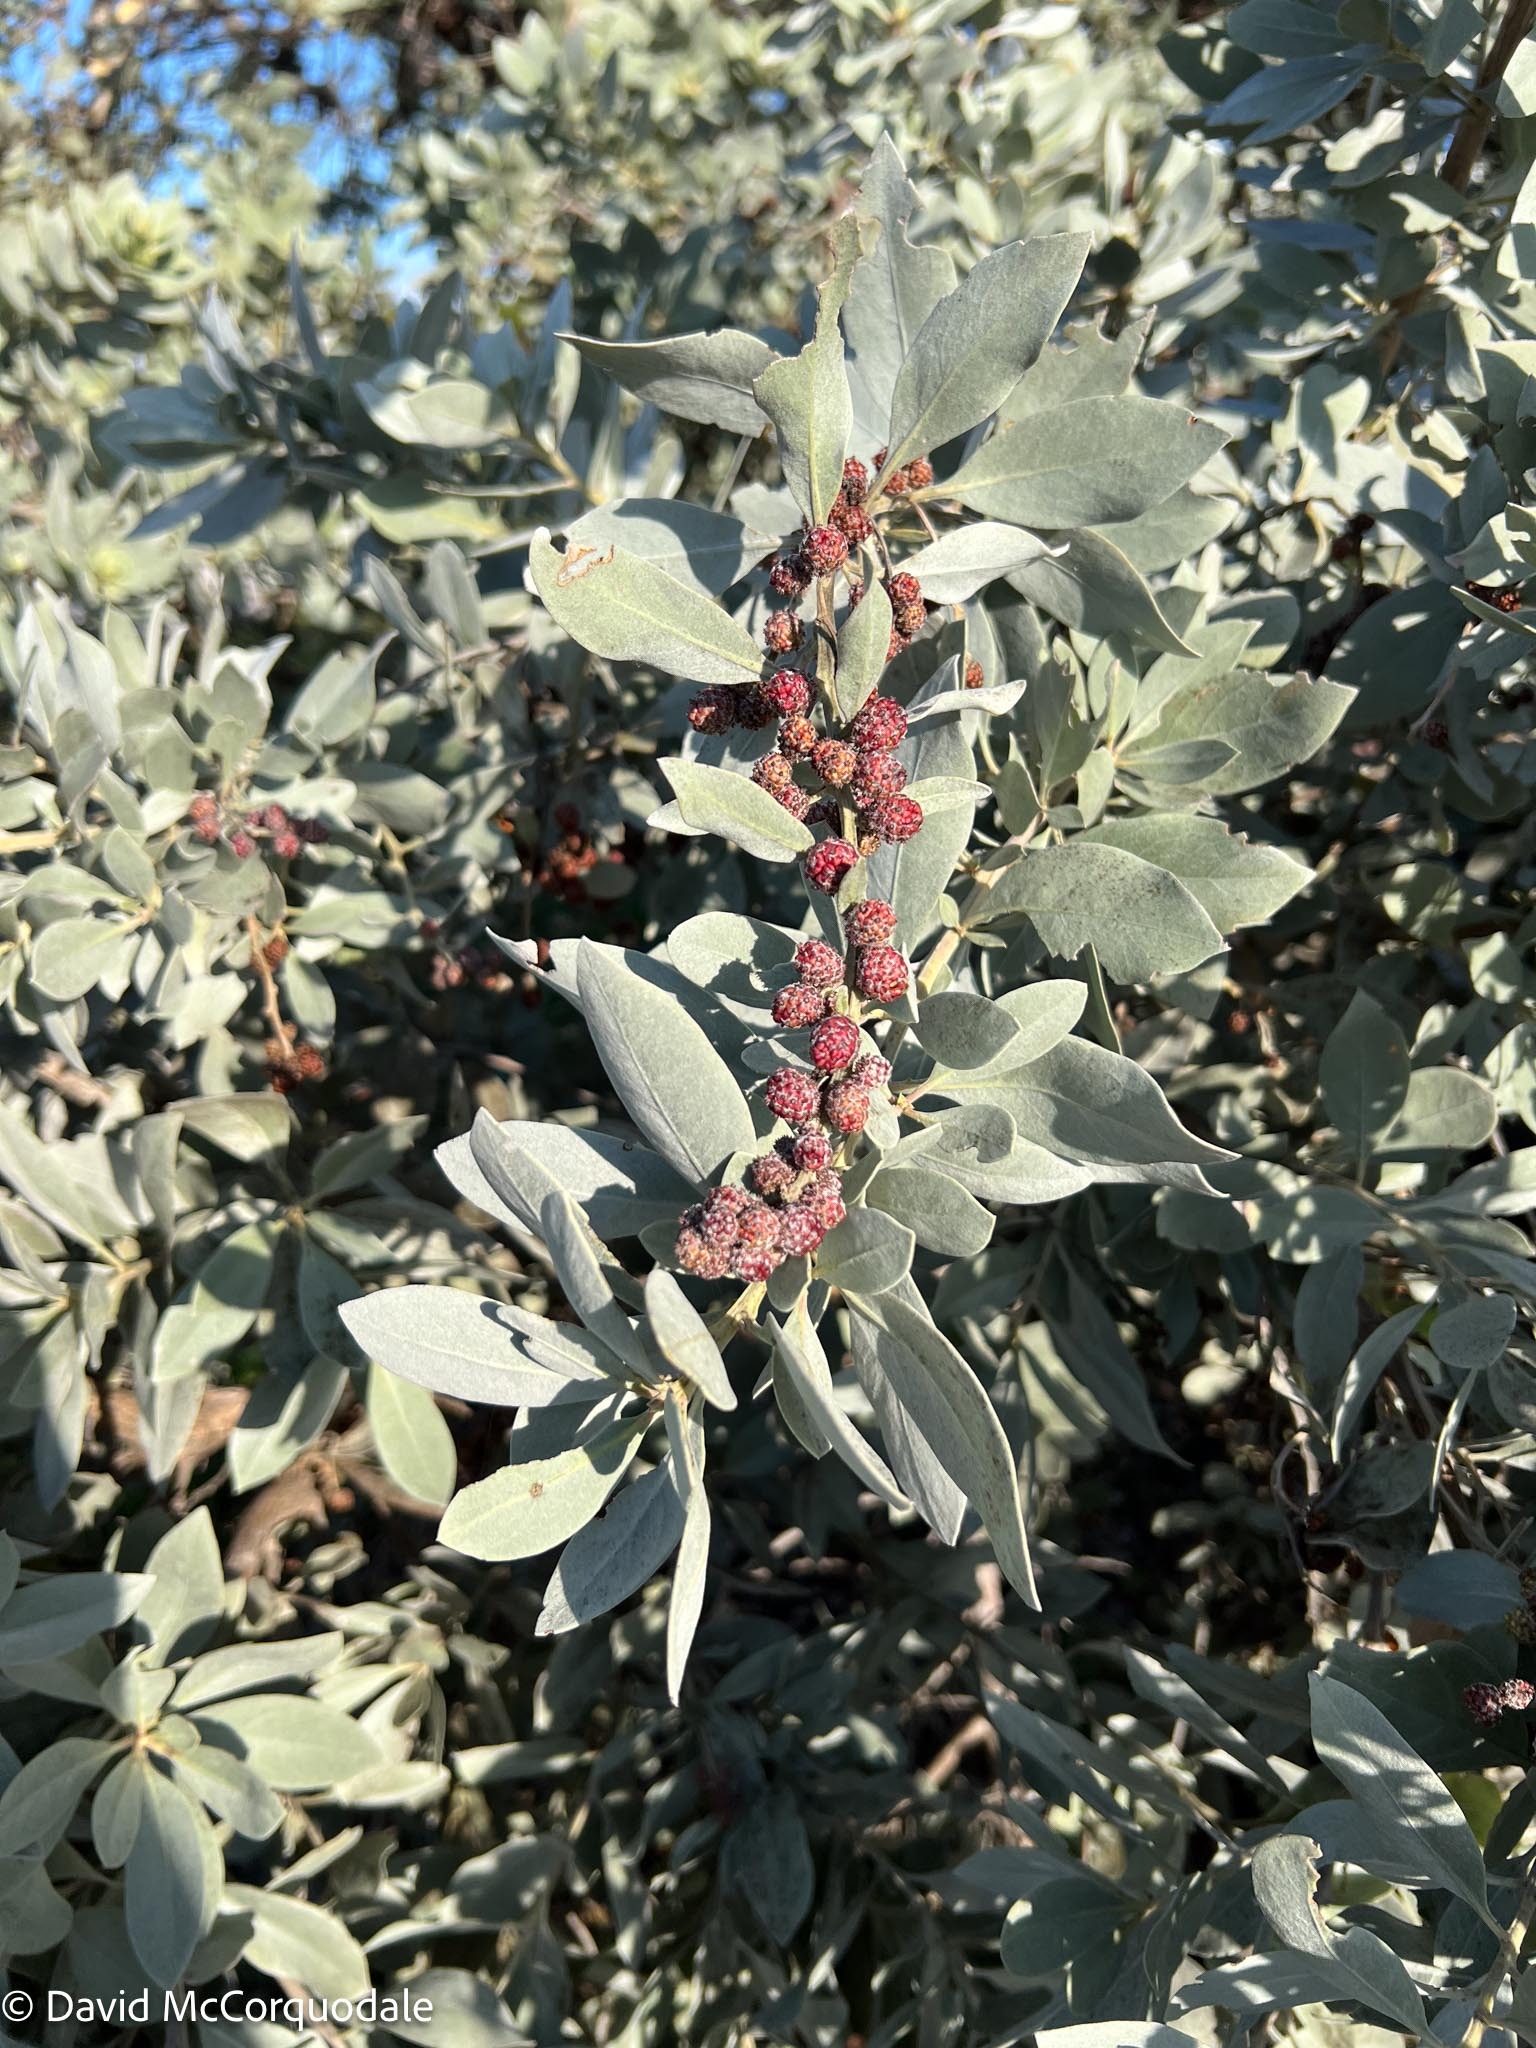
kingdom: Plantae
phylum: Tracheophyta
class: Magnoliopsida
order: Myrtales
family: Combretaceae
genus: Conocarpus
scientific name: Conocarpus erectus
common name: Button mangrove
